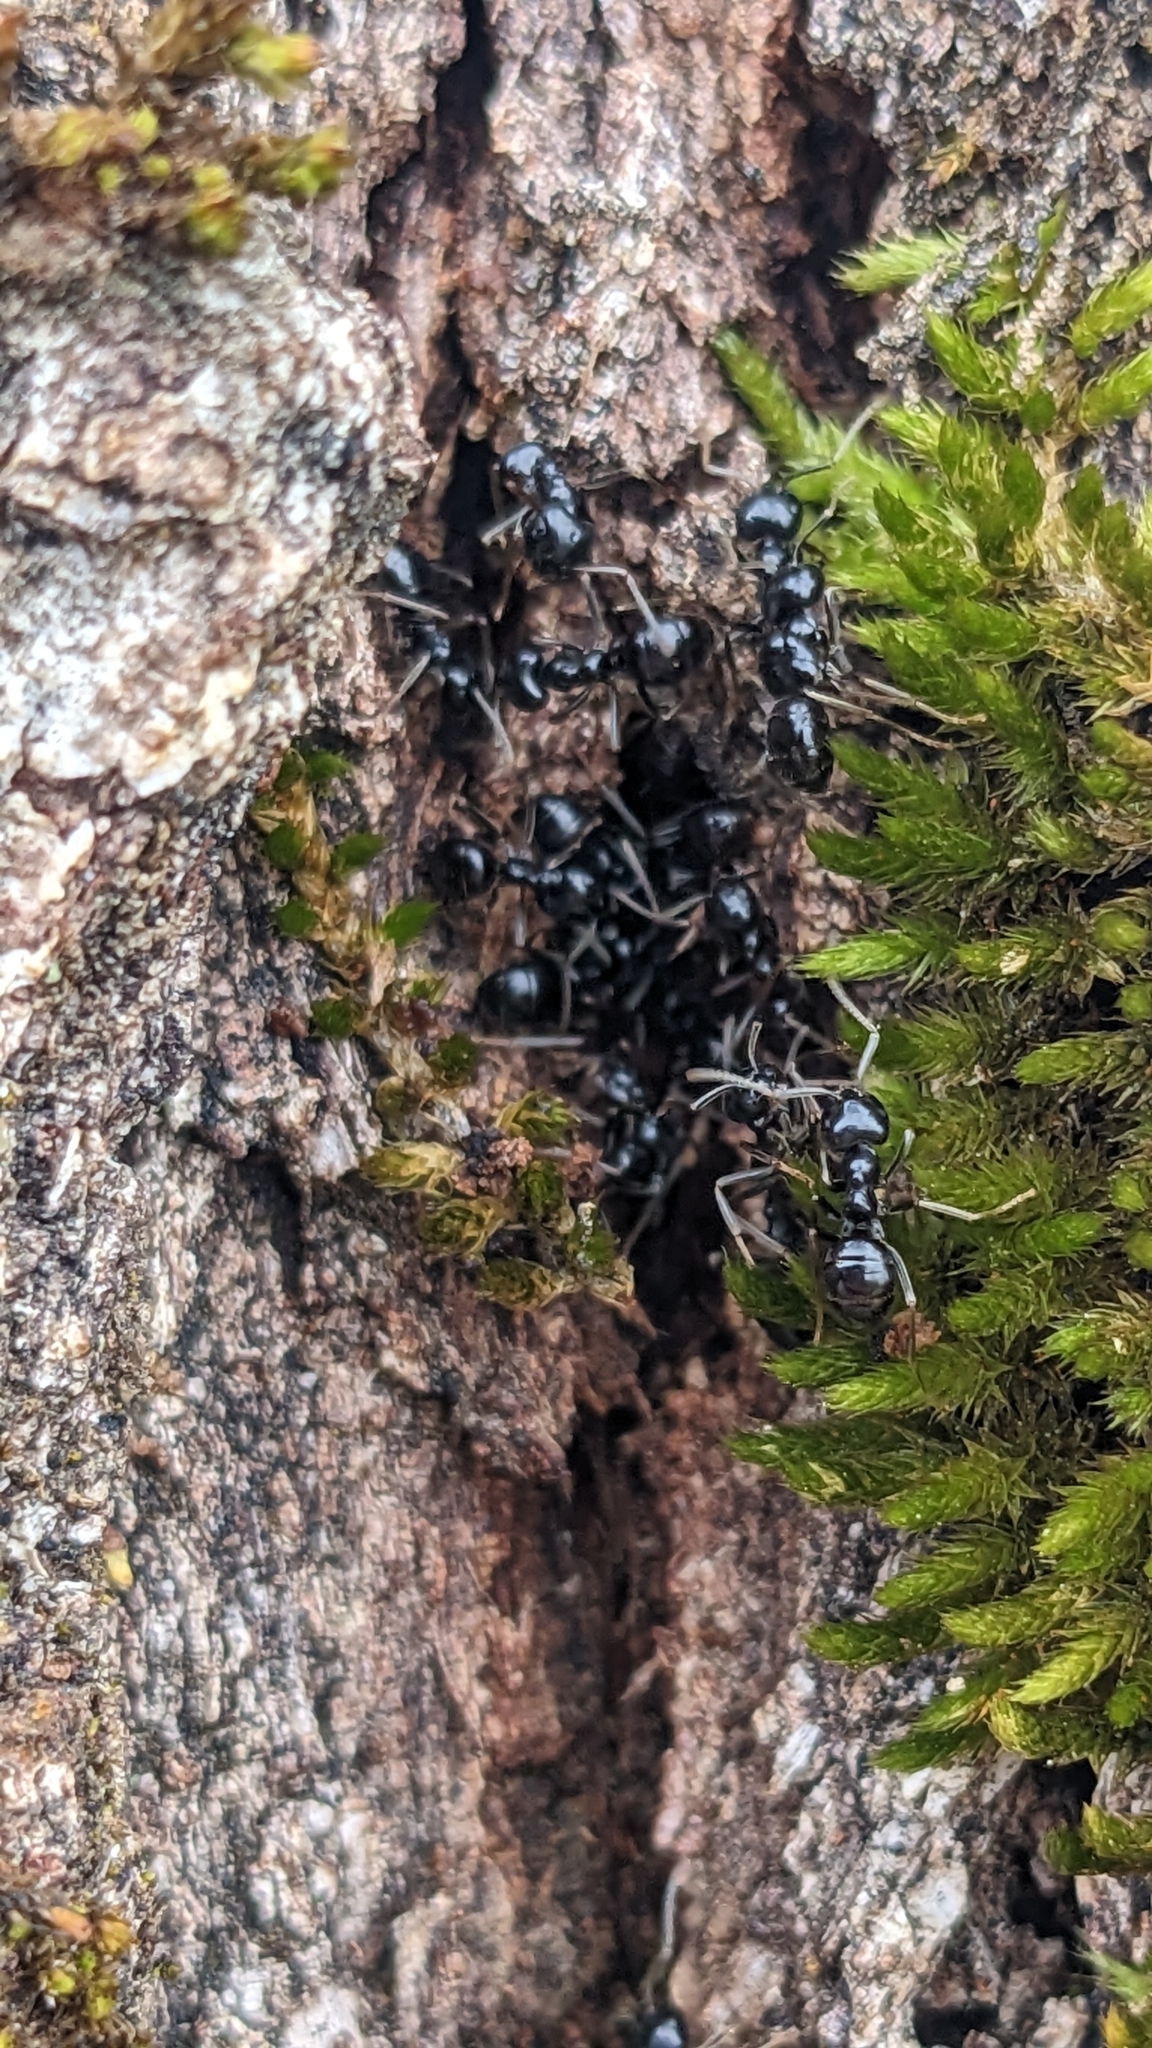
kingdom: Animalia
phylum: Arthropoda
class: Insecta
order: Hymenoptera
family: Formicidae
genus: Lasius
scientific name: Lasius fuliginosus
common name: Jet ant
